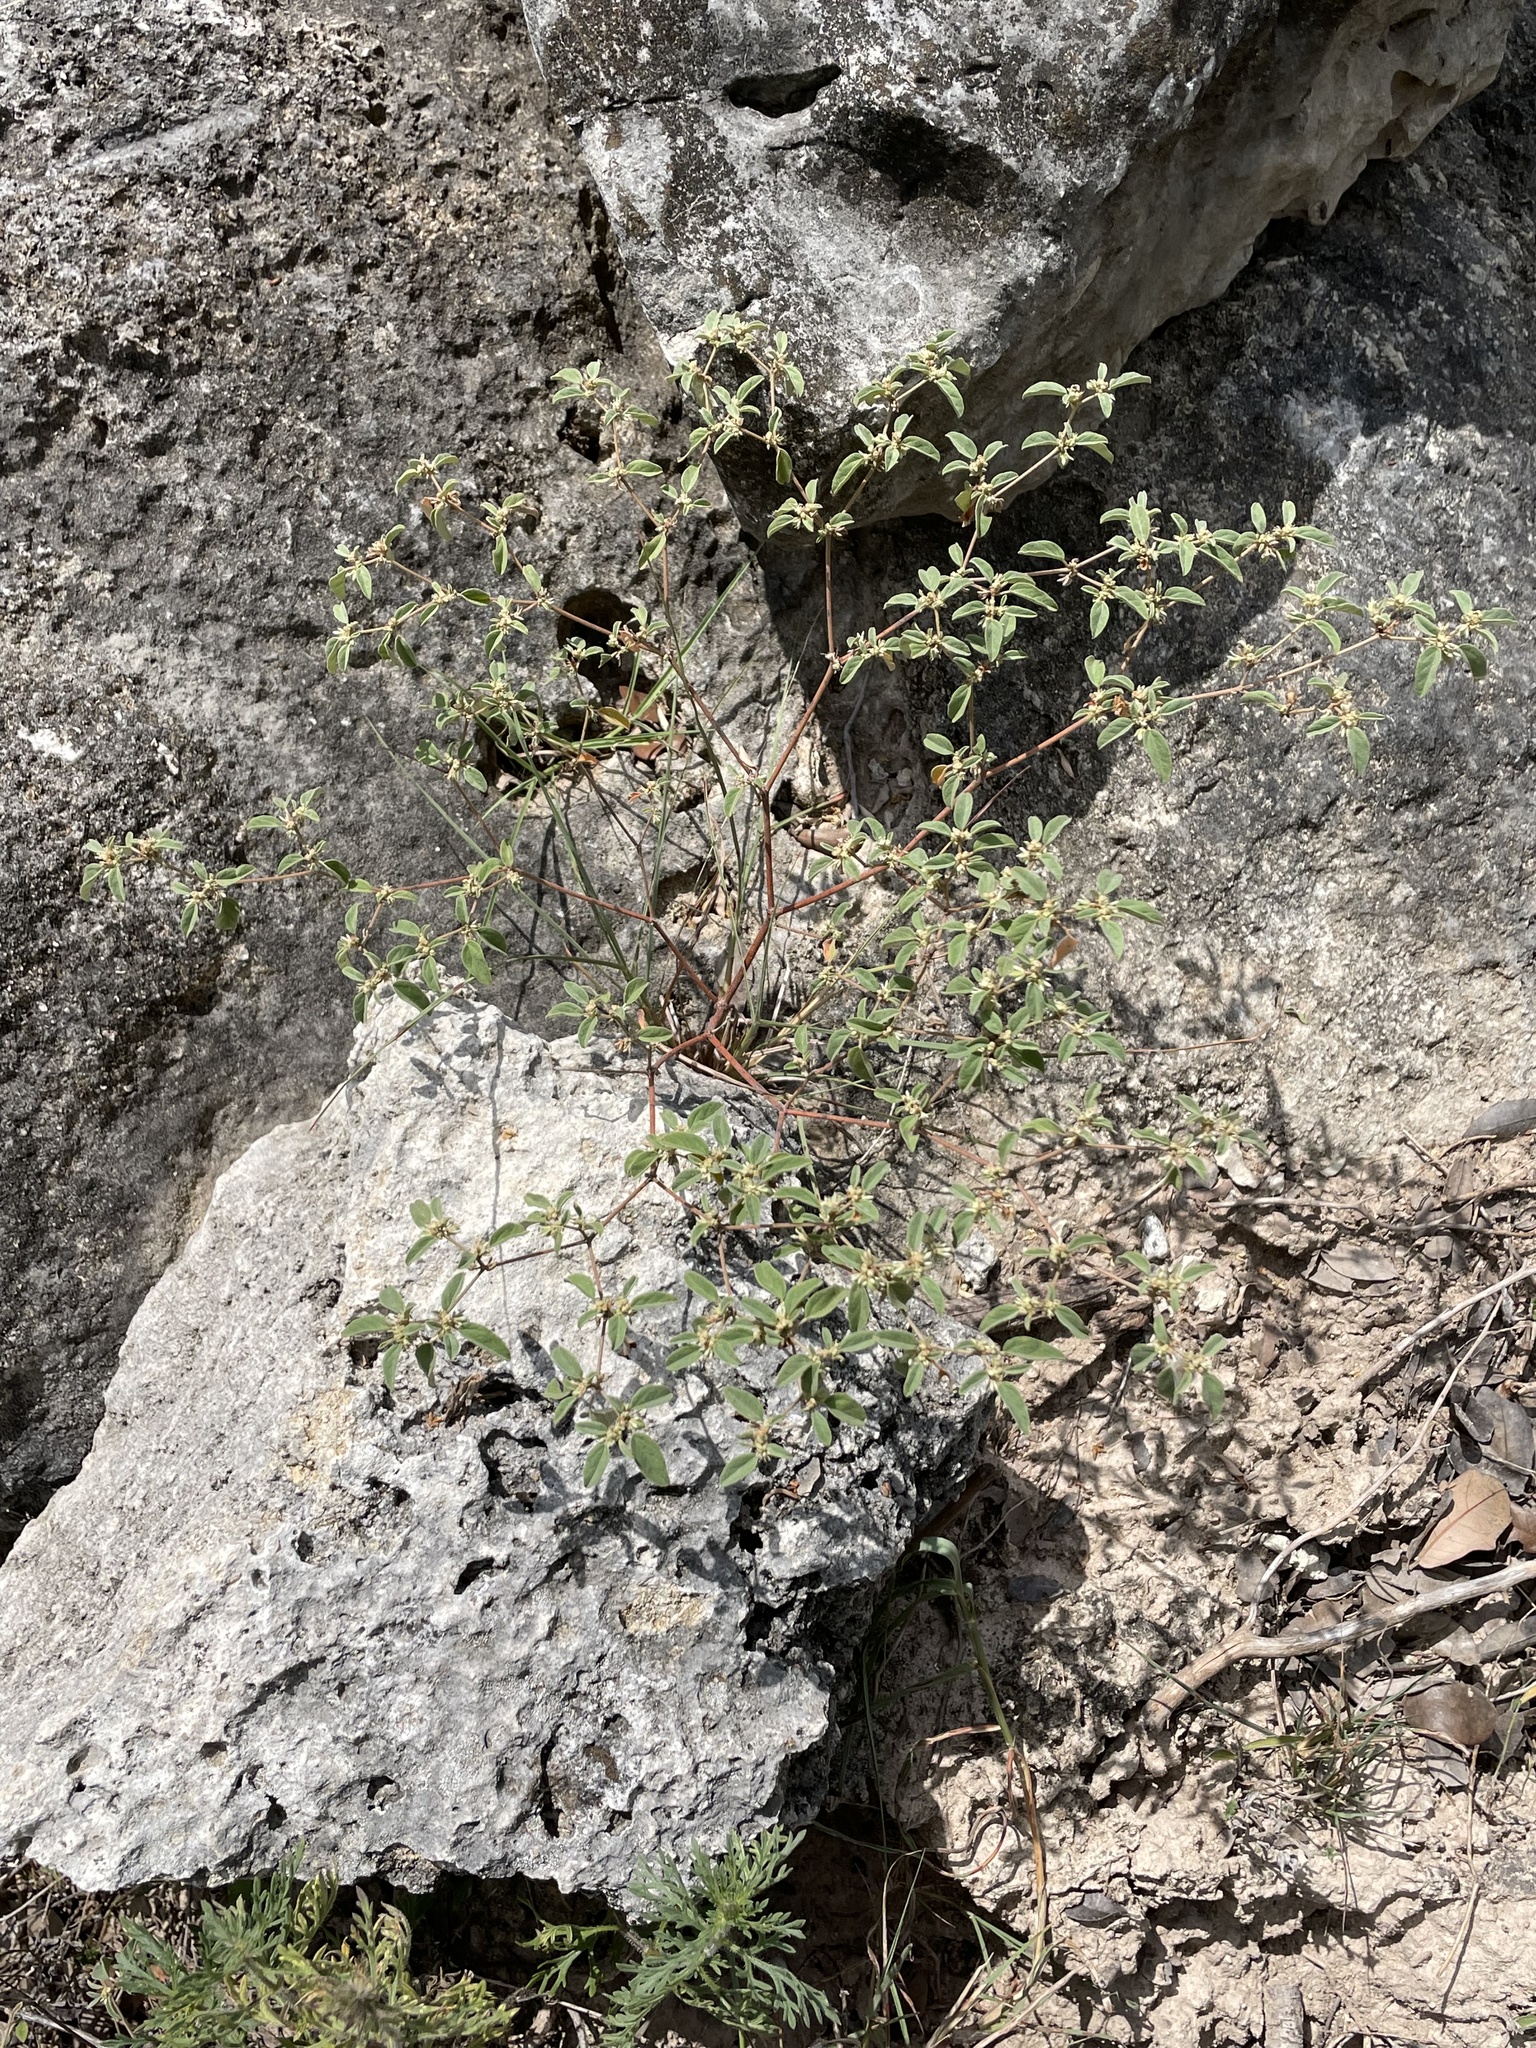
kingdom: Plantae
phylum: Tracheophyta
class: Magnoliopsida
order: Malpighiales
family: Euphorbiaceae
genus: Croton
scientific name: Croton monanthogynus
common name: One-seed croton
